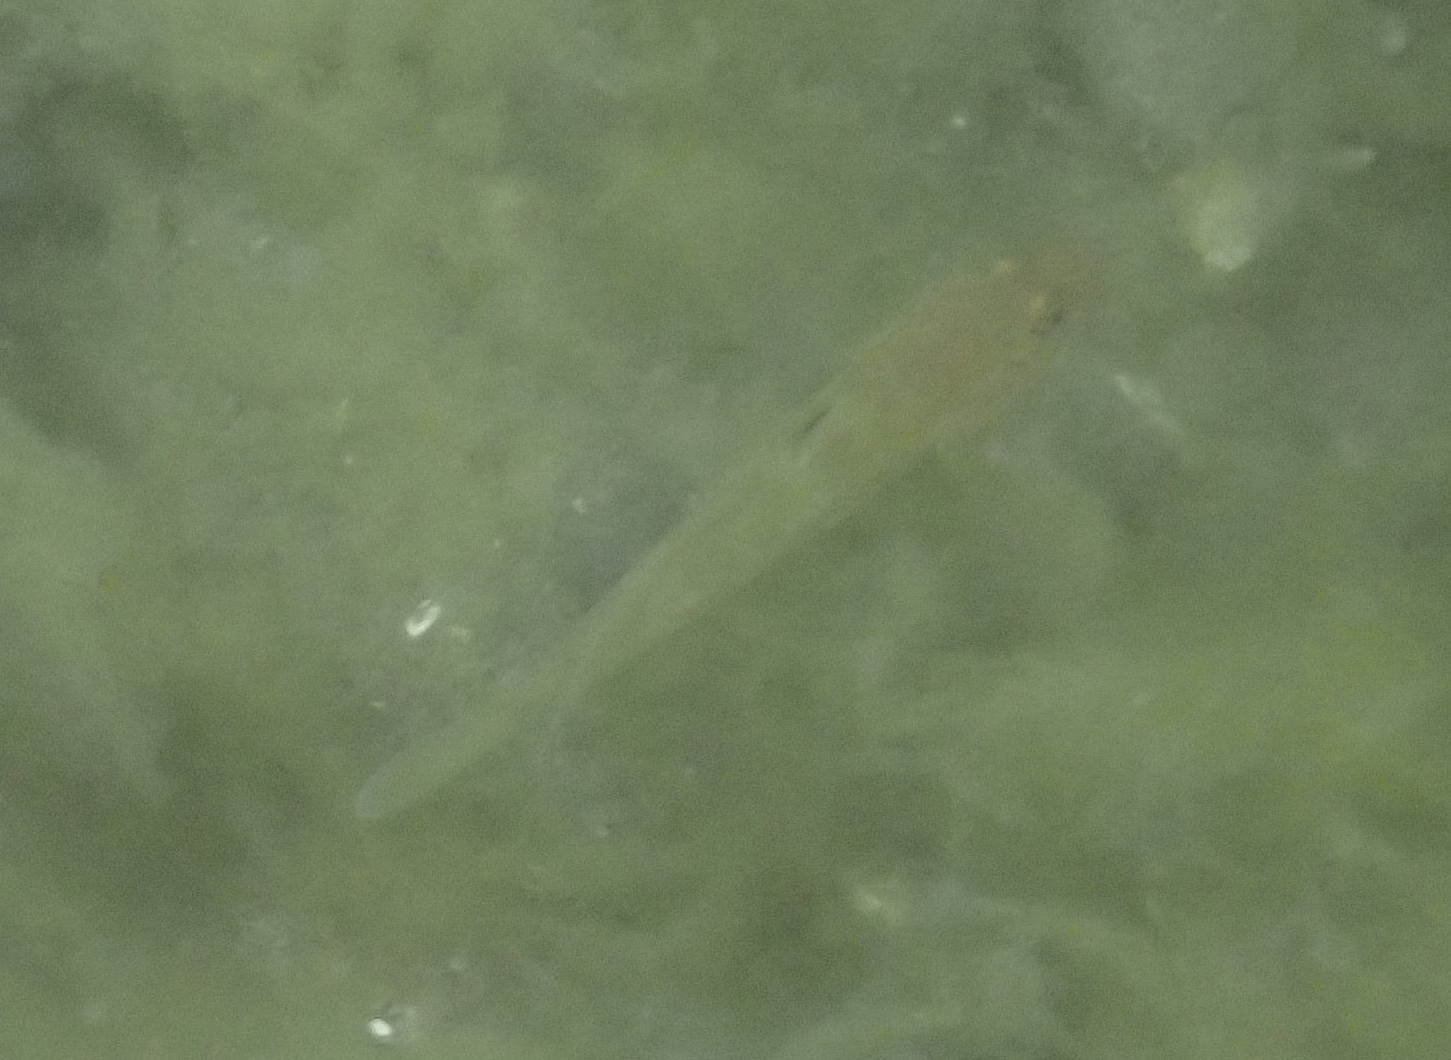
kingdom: Animalia
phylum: Chordata
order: Perciformes
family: Gobiidae
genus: Rhinogobiops
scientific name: Rhinogobiops nicholsii
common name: Blackeye goby
